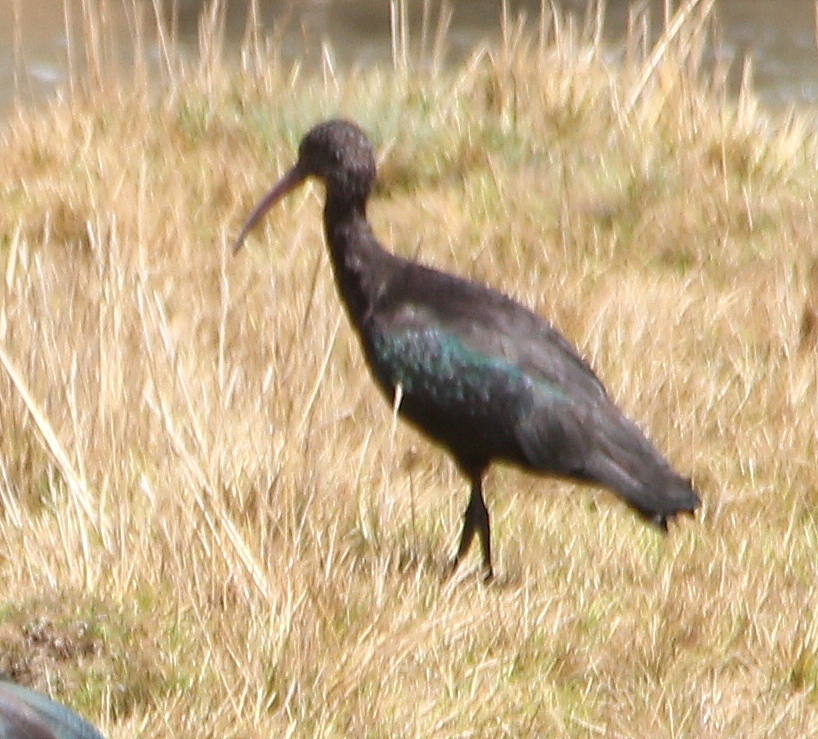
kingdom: Animalia
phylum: Chordata
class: Aves
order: Pelecaniformes
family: Threskiornithidae
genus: Plegadis
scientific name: Plegadis ridgwayi
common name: Puna ibis
